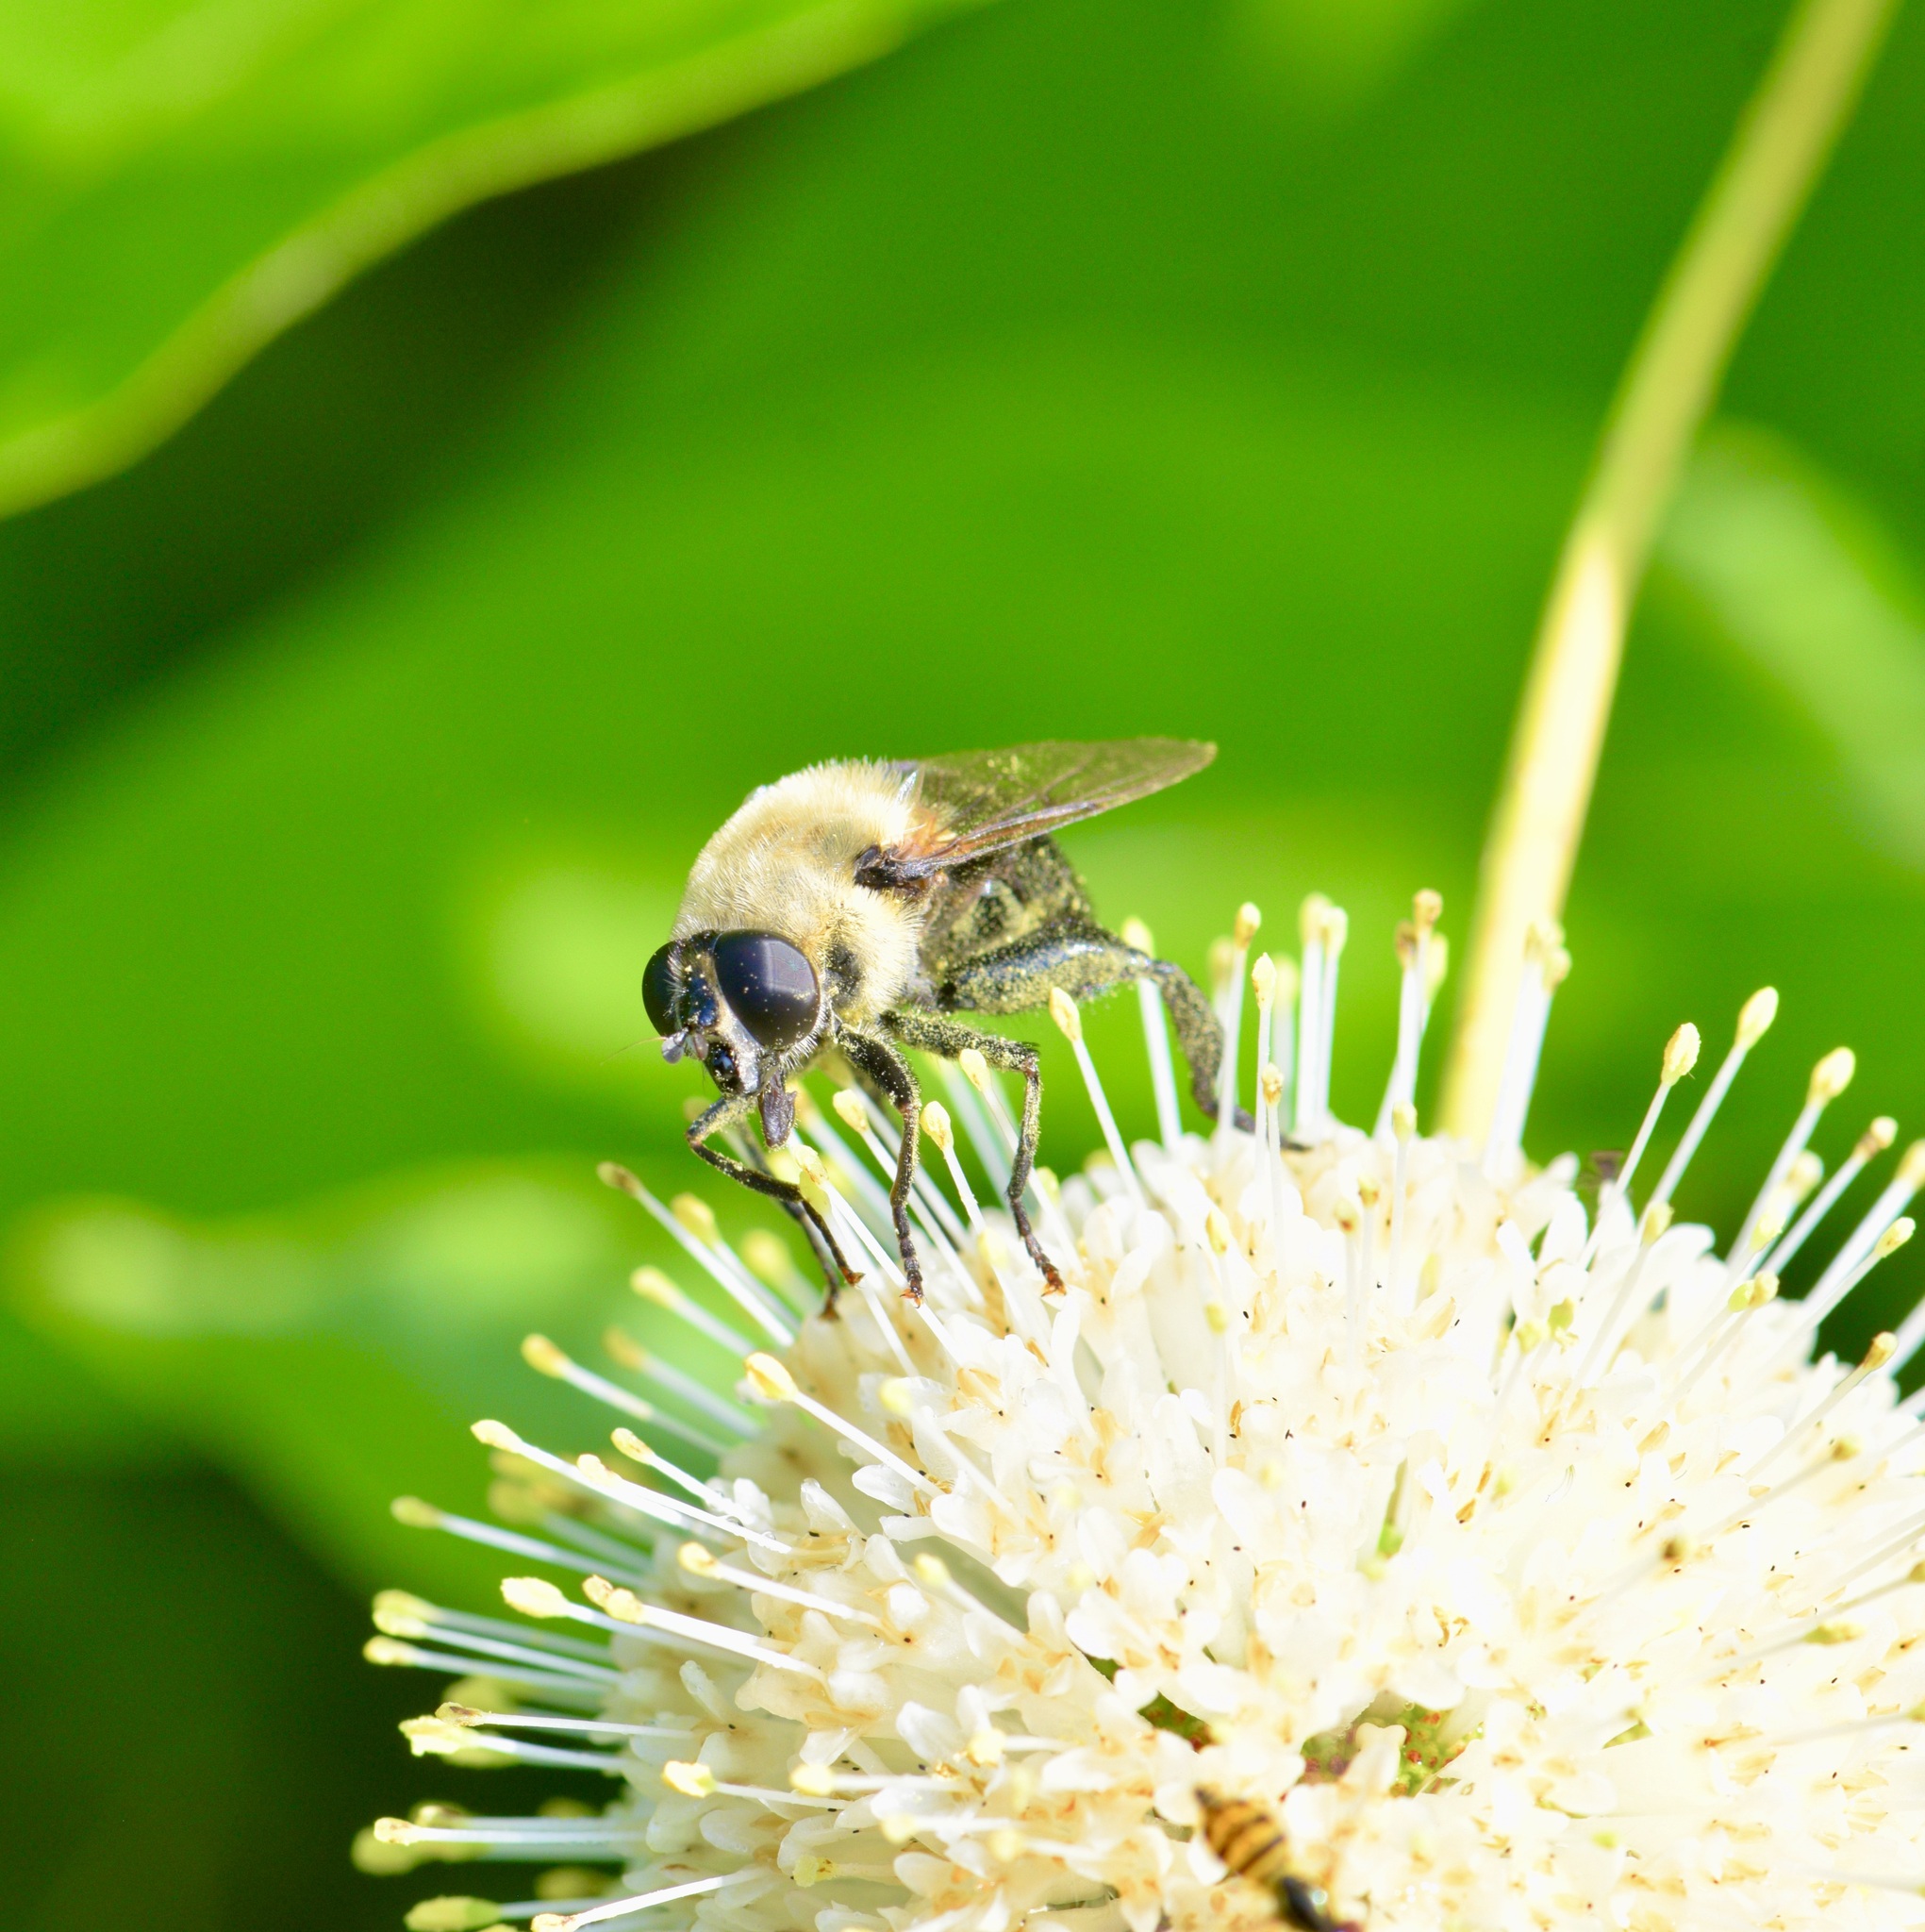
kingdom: Animalia
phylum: Arthropoda
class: Insecta
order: Diptera
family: Syrphidae
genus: Imatisma
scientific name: Imatisma bautias
